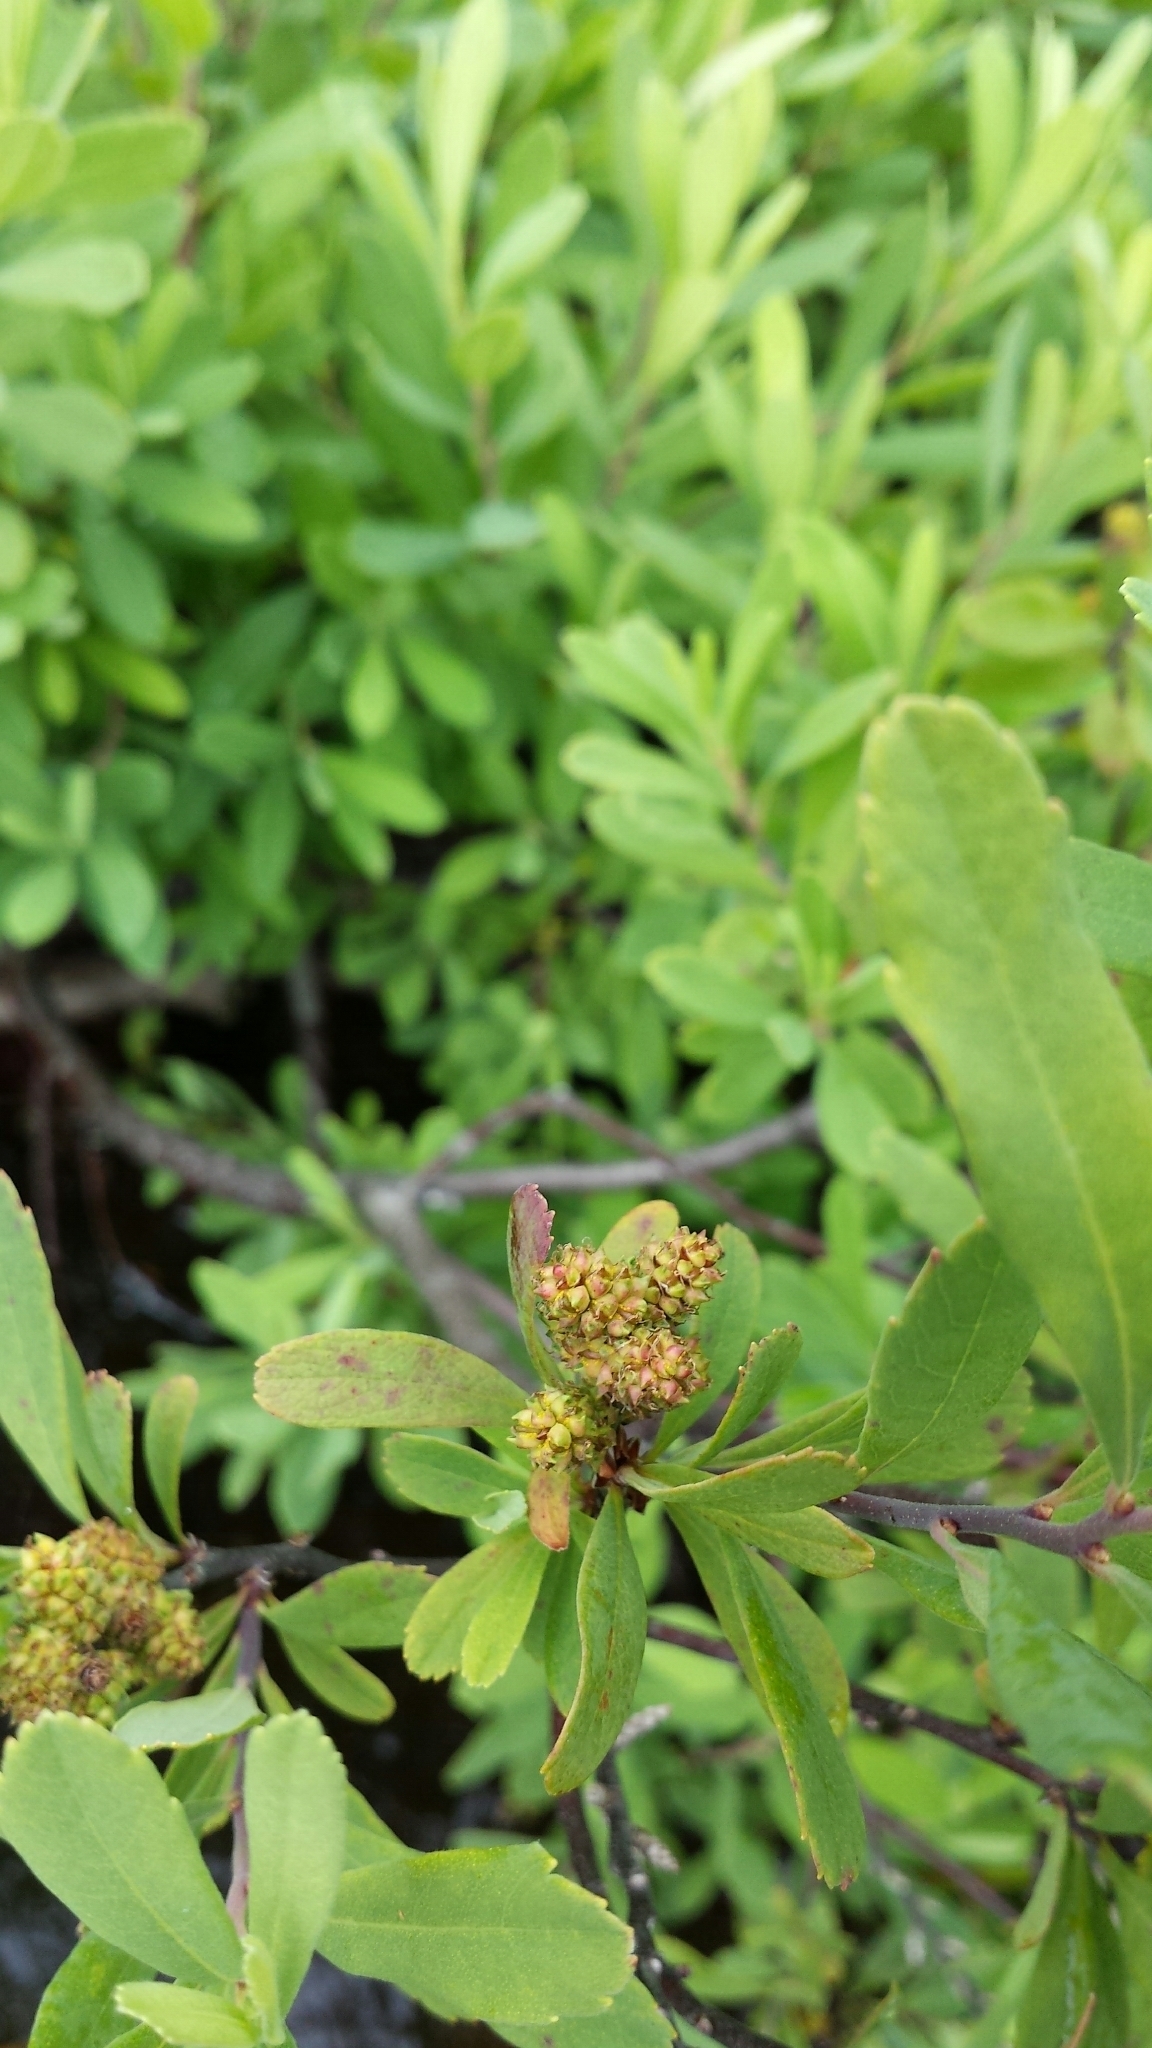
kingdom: Plantae
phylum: Tracheophyta
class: Magnoliopsida
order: Fagales
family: Myricaceae
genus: Myrica
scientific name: Myrica gale
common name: Sweet gale
